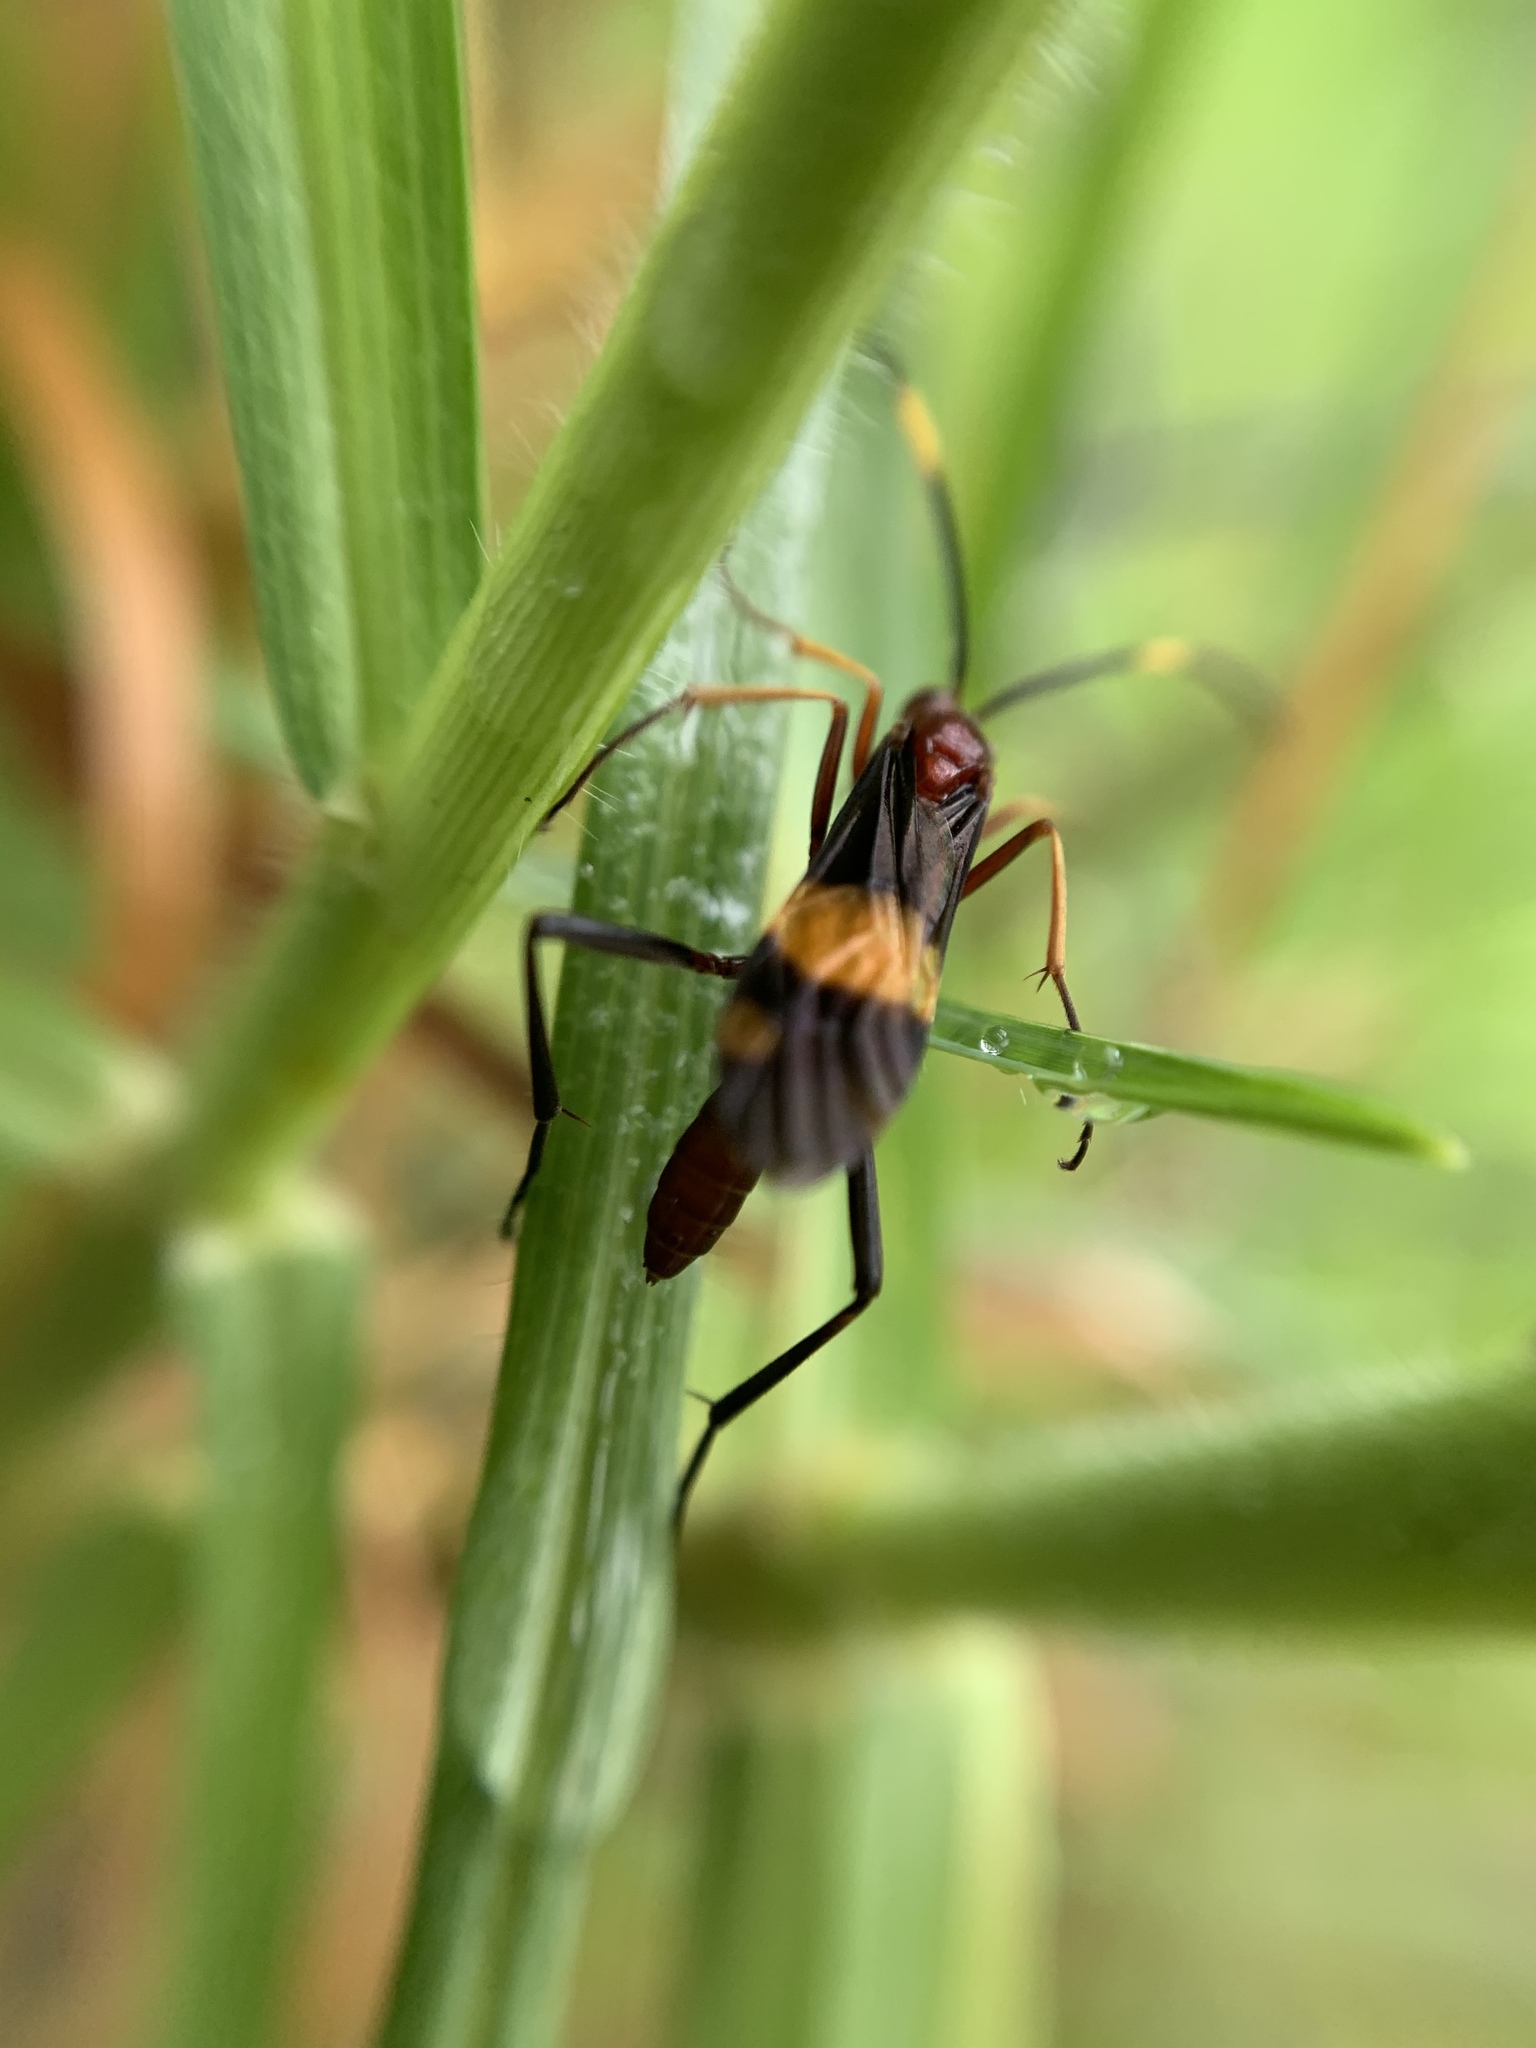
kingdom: Animalia
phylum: Arthropoda
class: Insecta
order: Hymenoptera
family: Ichneumonidae
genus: Compsocryptus
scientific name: Compsocryptus melanostigma
